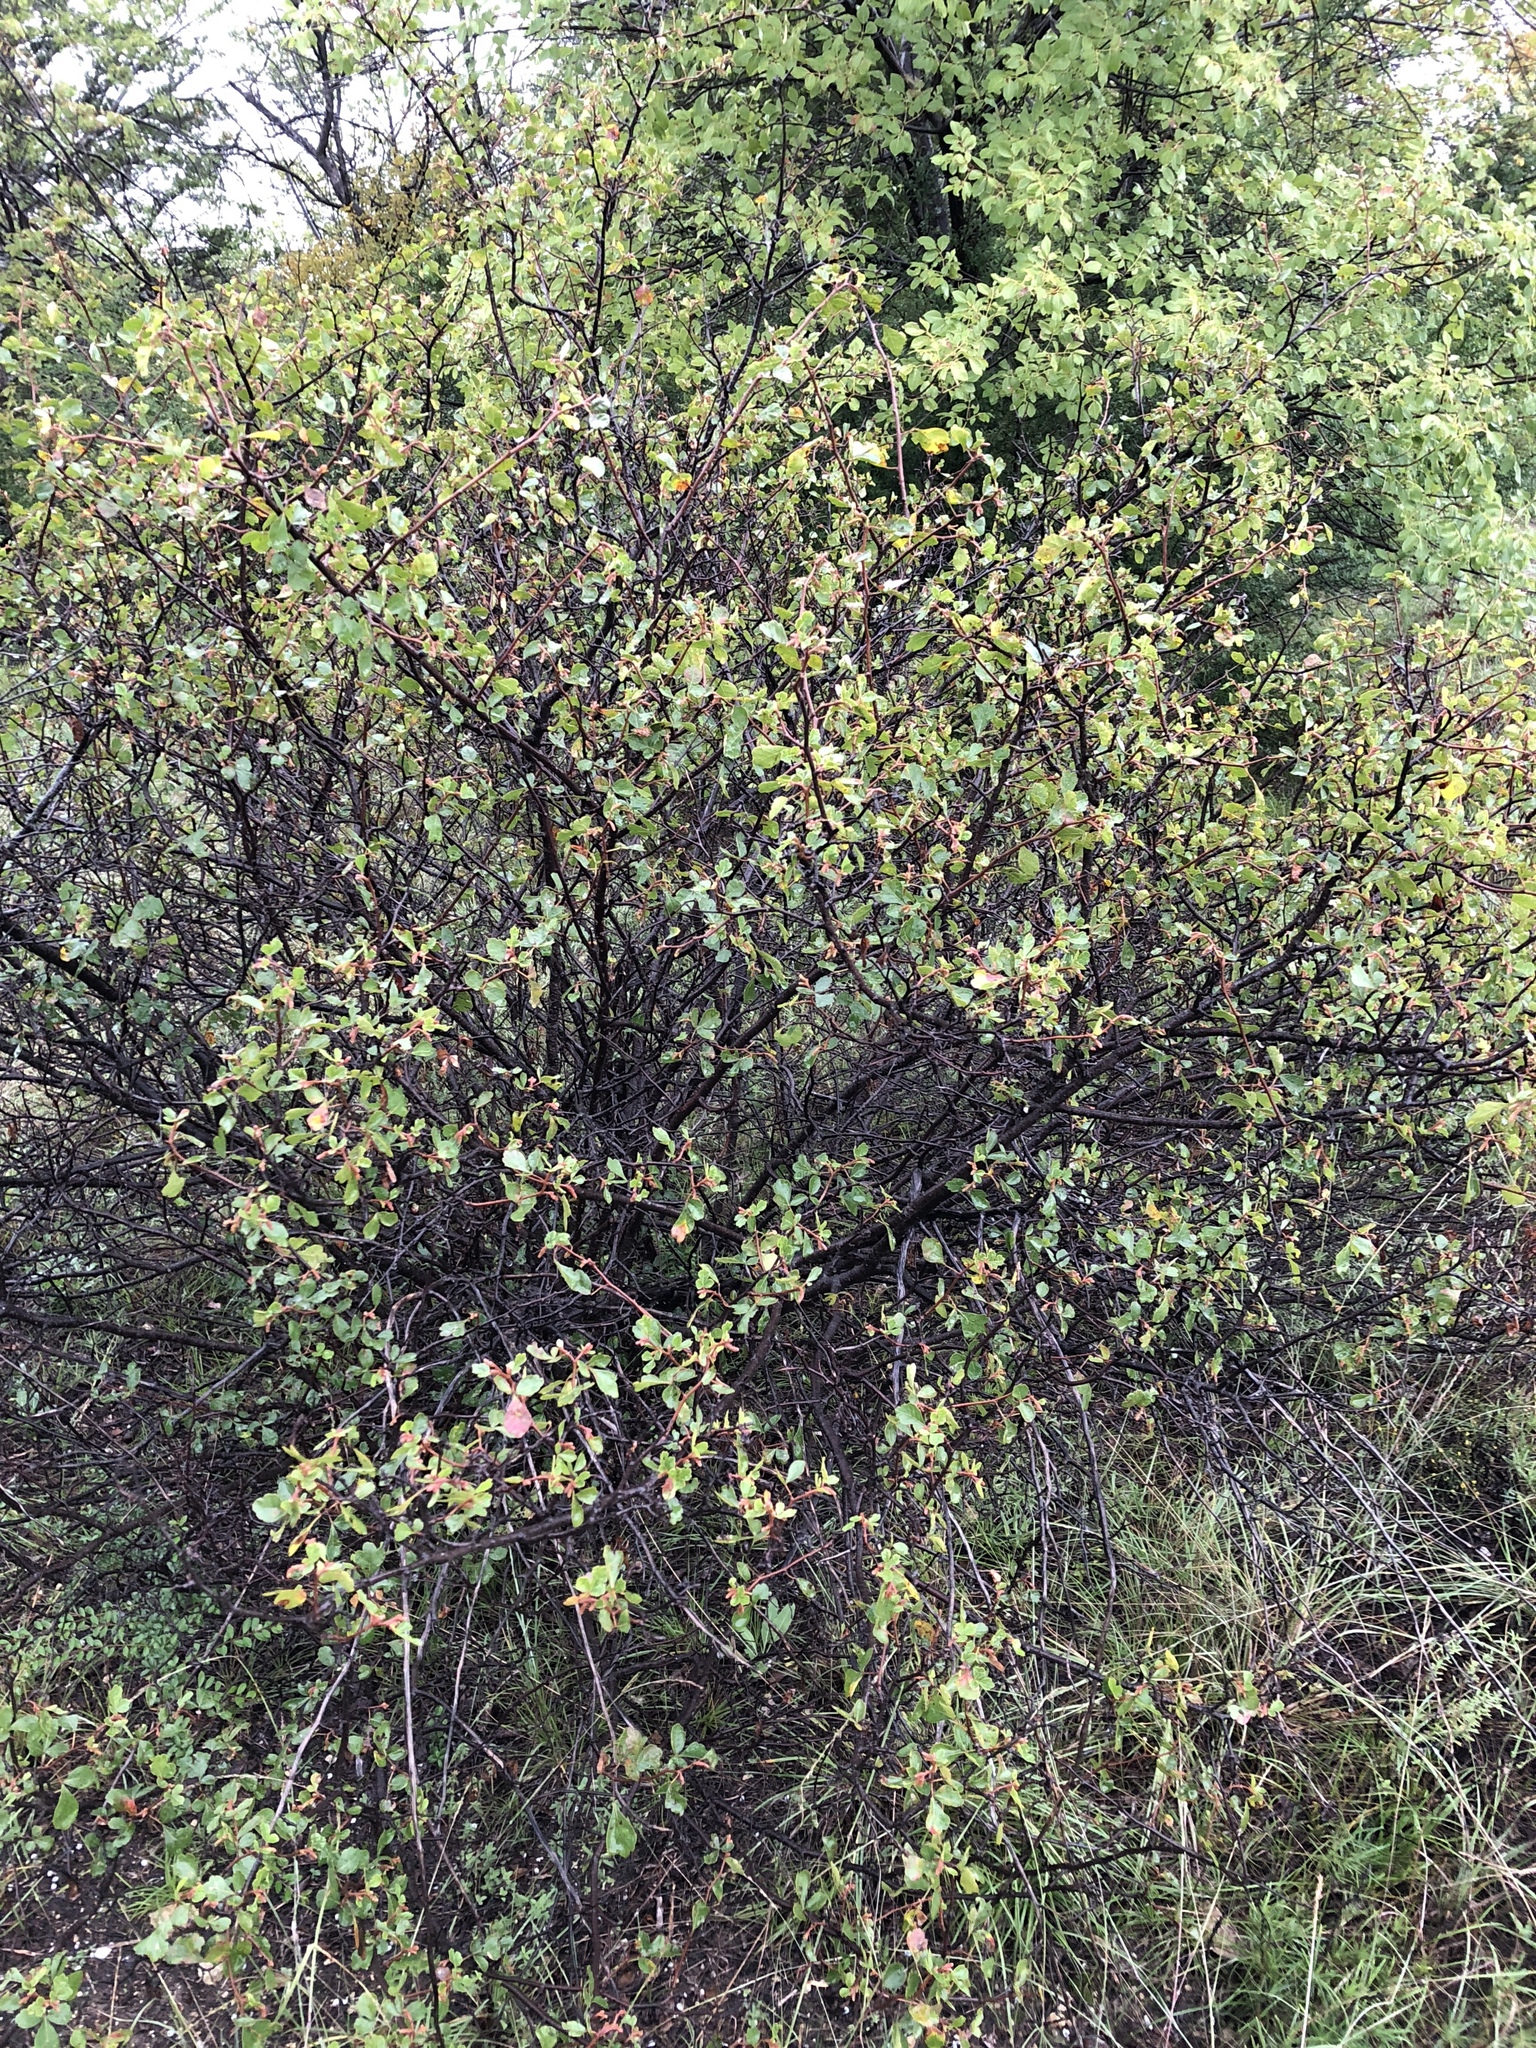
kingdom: Plantae
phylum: Tracheophyta
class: Magnoliopsida
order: Sapindales
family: Anacardiaceae
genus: Rhus
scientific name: Rhus aromatica
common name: Aromatic sumac
